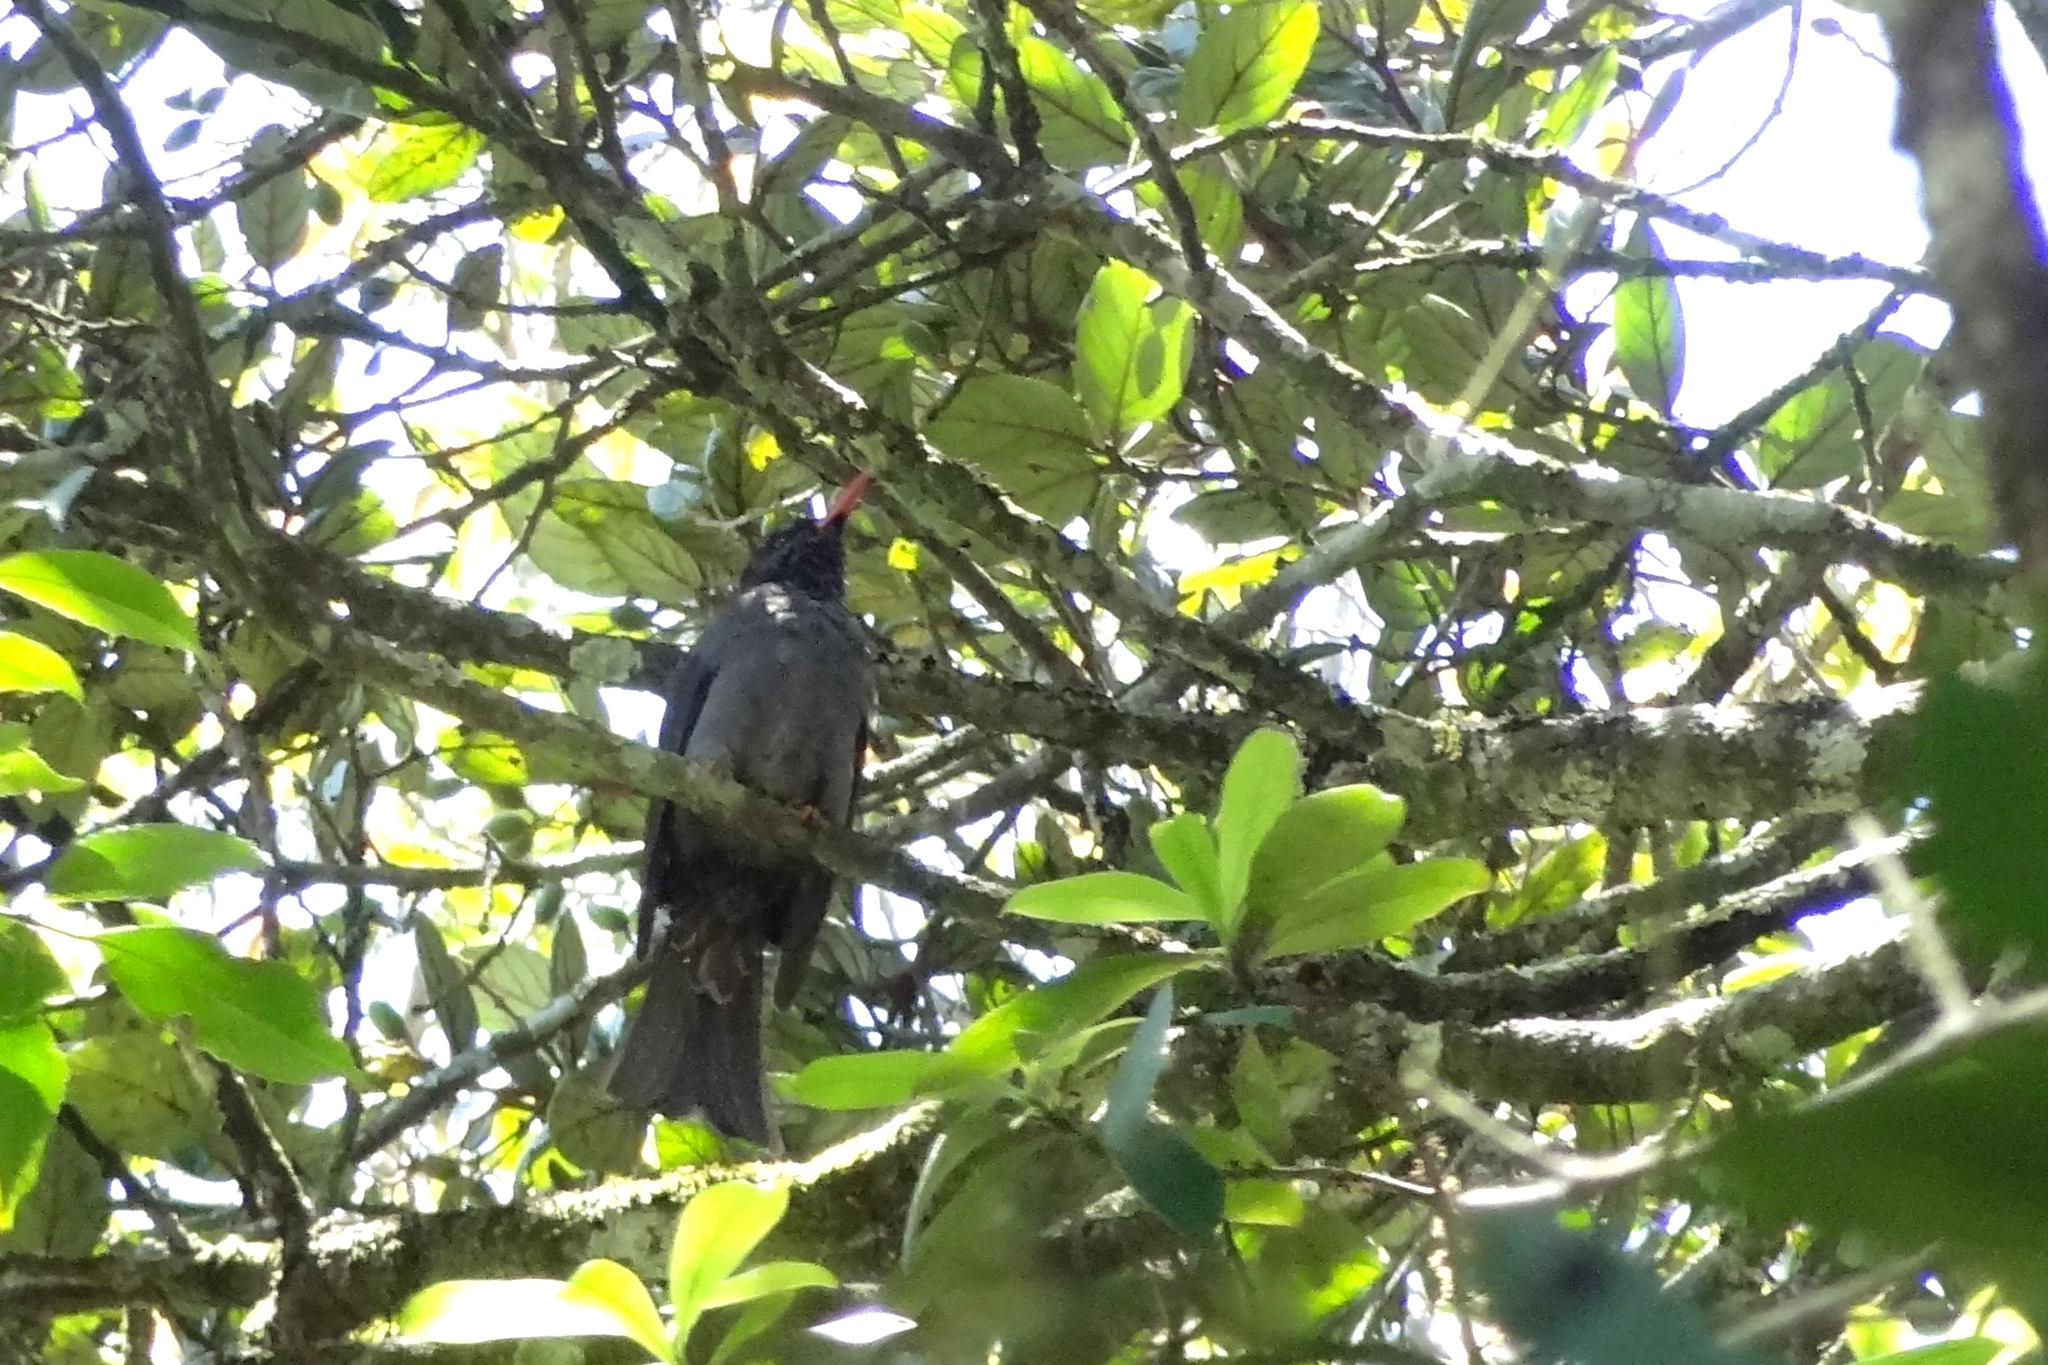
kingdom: Animalia
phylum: Chordata
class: Aves
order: Passeriformes
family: Pycnonotidae
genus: Hypsipetes
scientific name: Hypsipetes ganeesa
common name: Square-tailed bulbul
